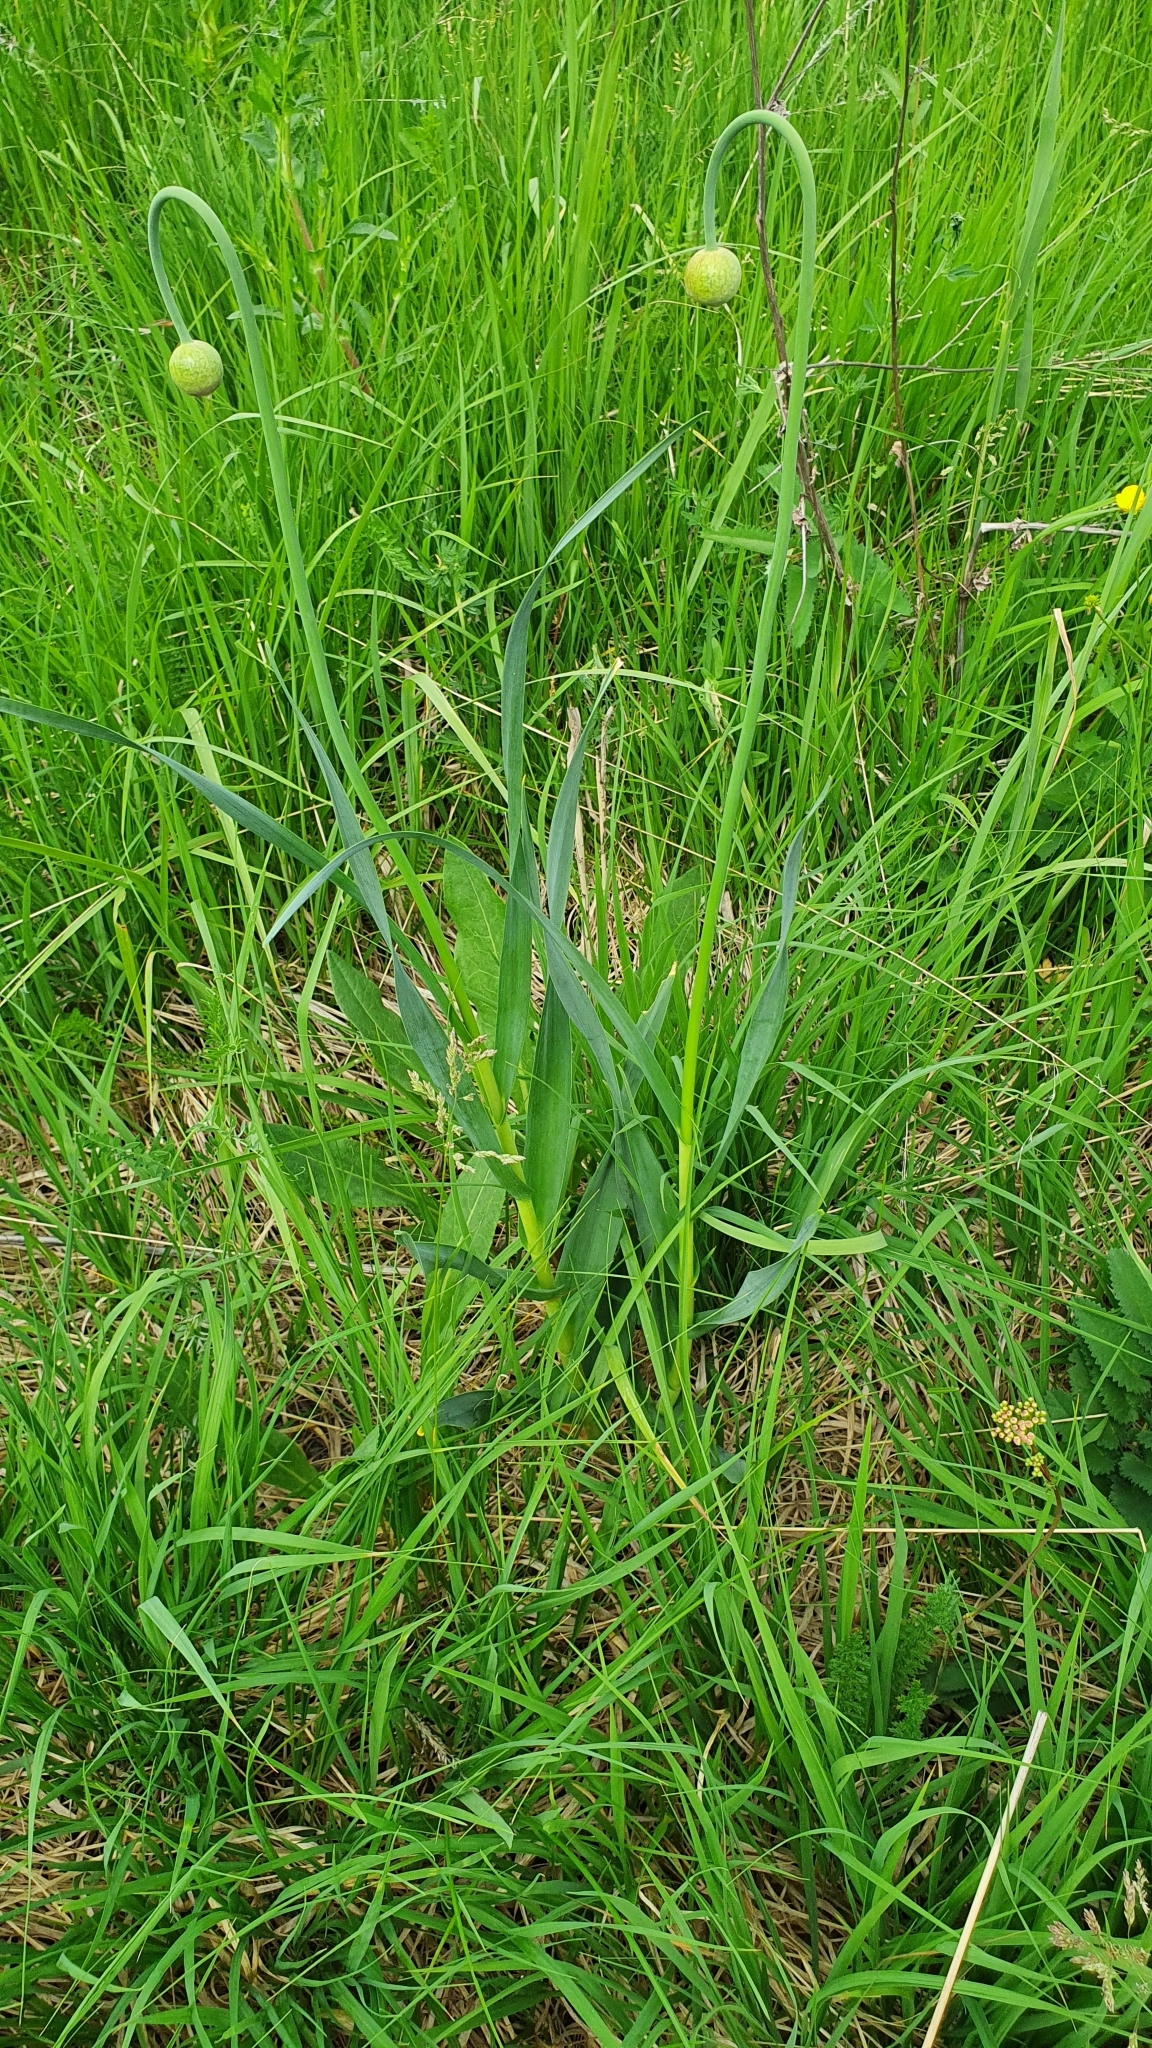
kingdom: Plantae
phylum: Tracheophyta
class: Liliopsida
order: Asparagales
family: Amaryllidaceae
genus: Allium
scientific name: Allium obliquum
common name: Oblique onion
